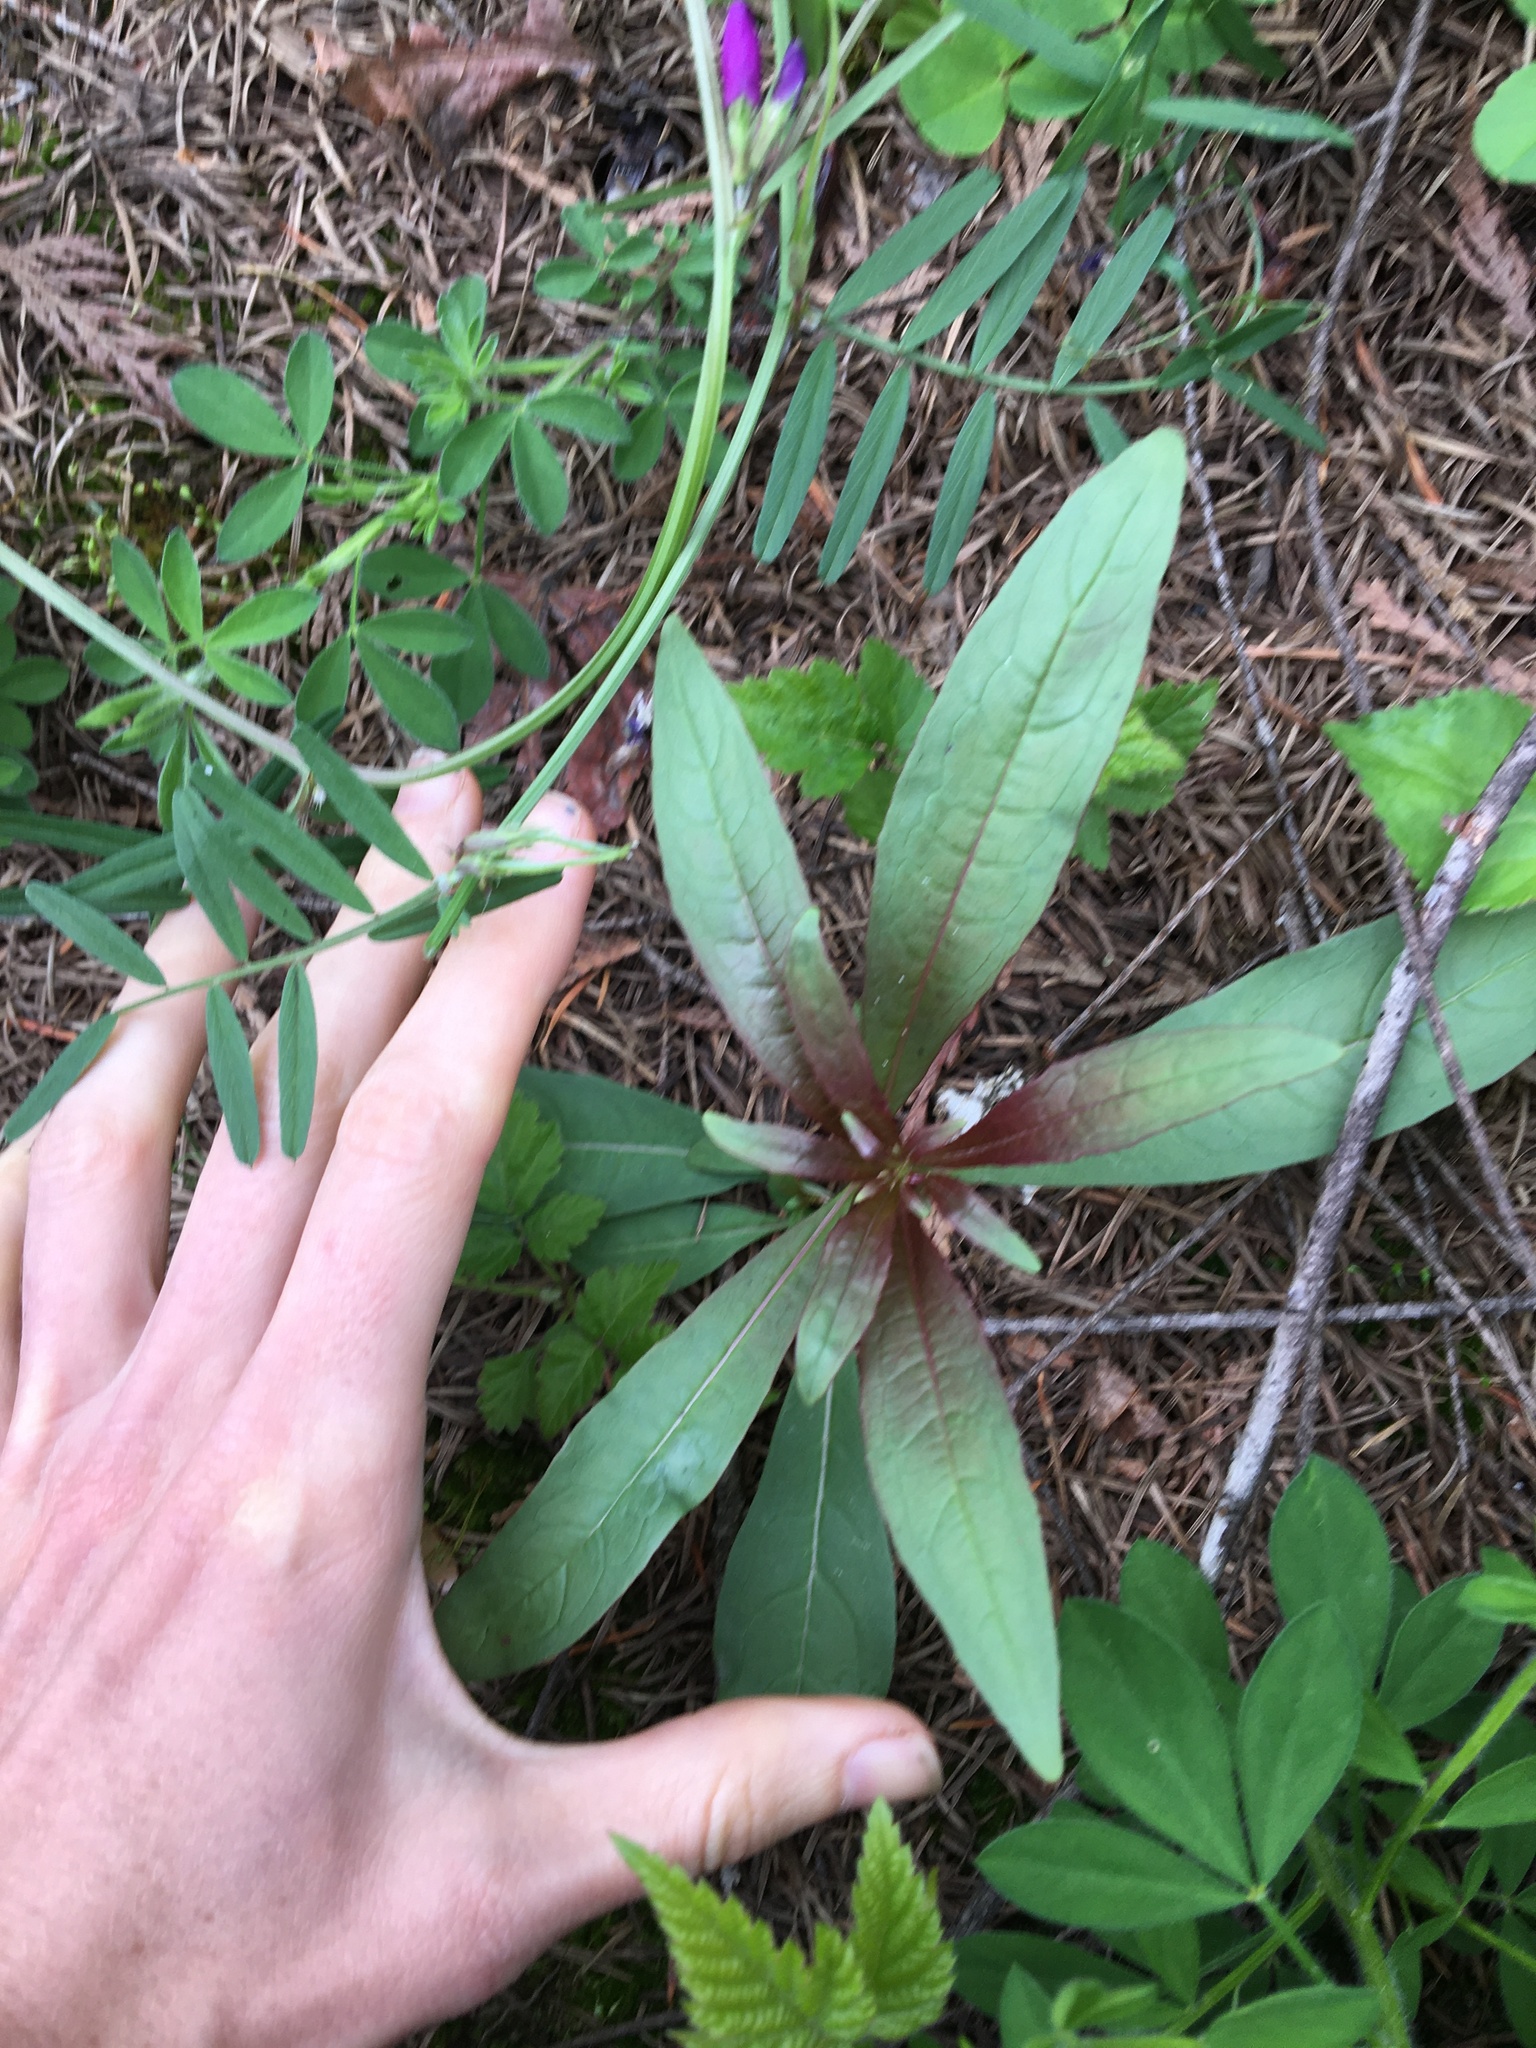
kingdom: Plantae
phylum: Tracheophyta
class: Magnoliopsida
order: Myrtales
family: Onagraceae
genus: Chamaenerion
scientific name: Chamaenerion angustifolium
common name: Fireweed
